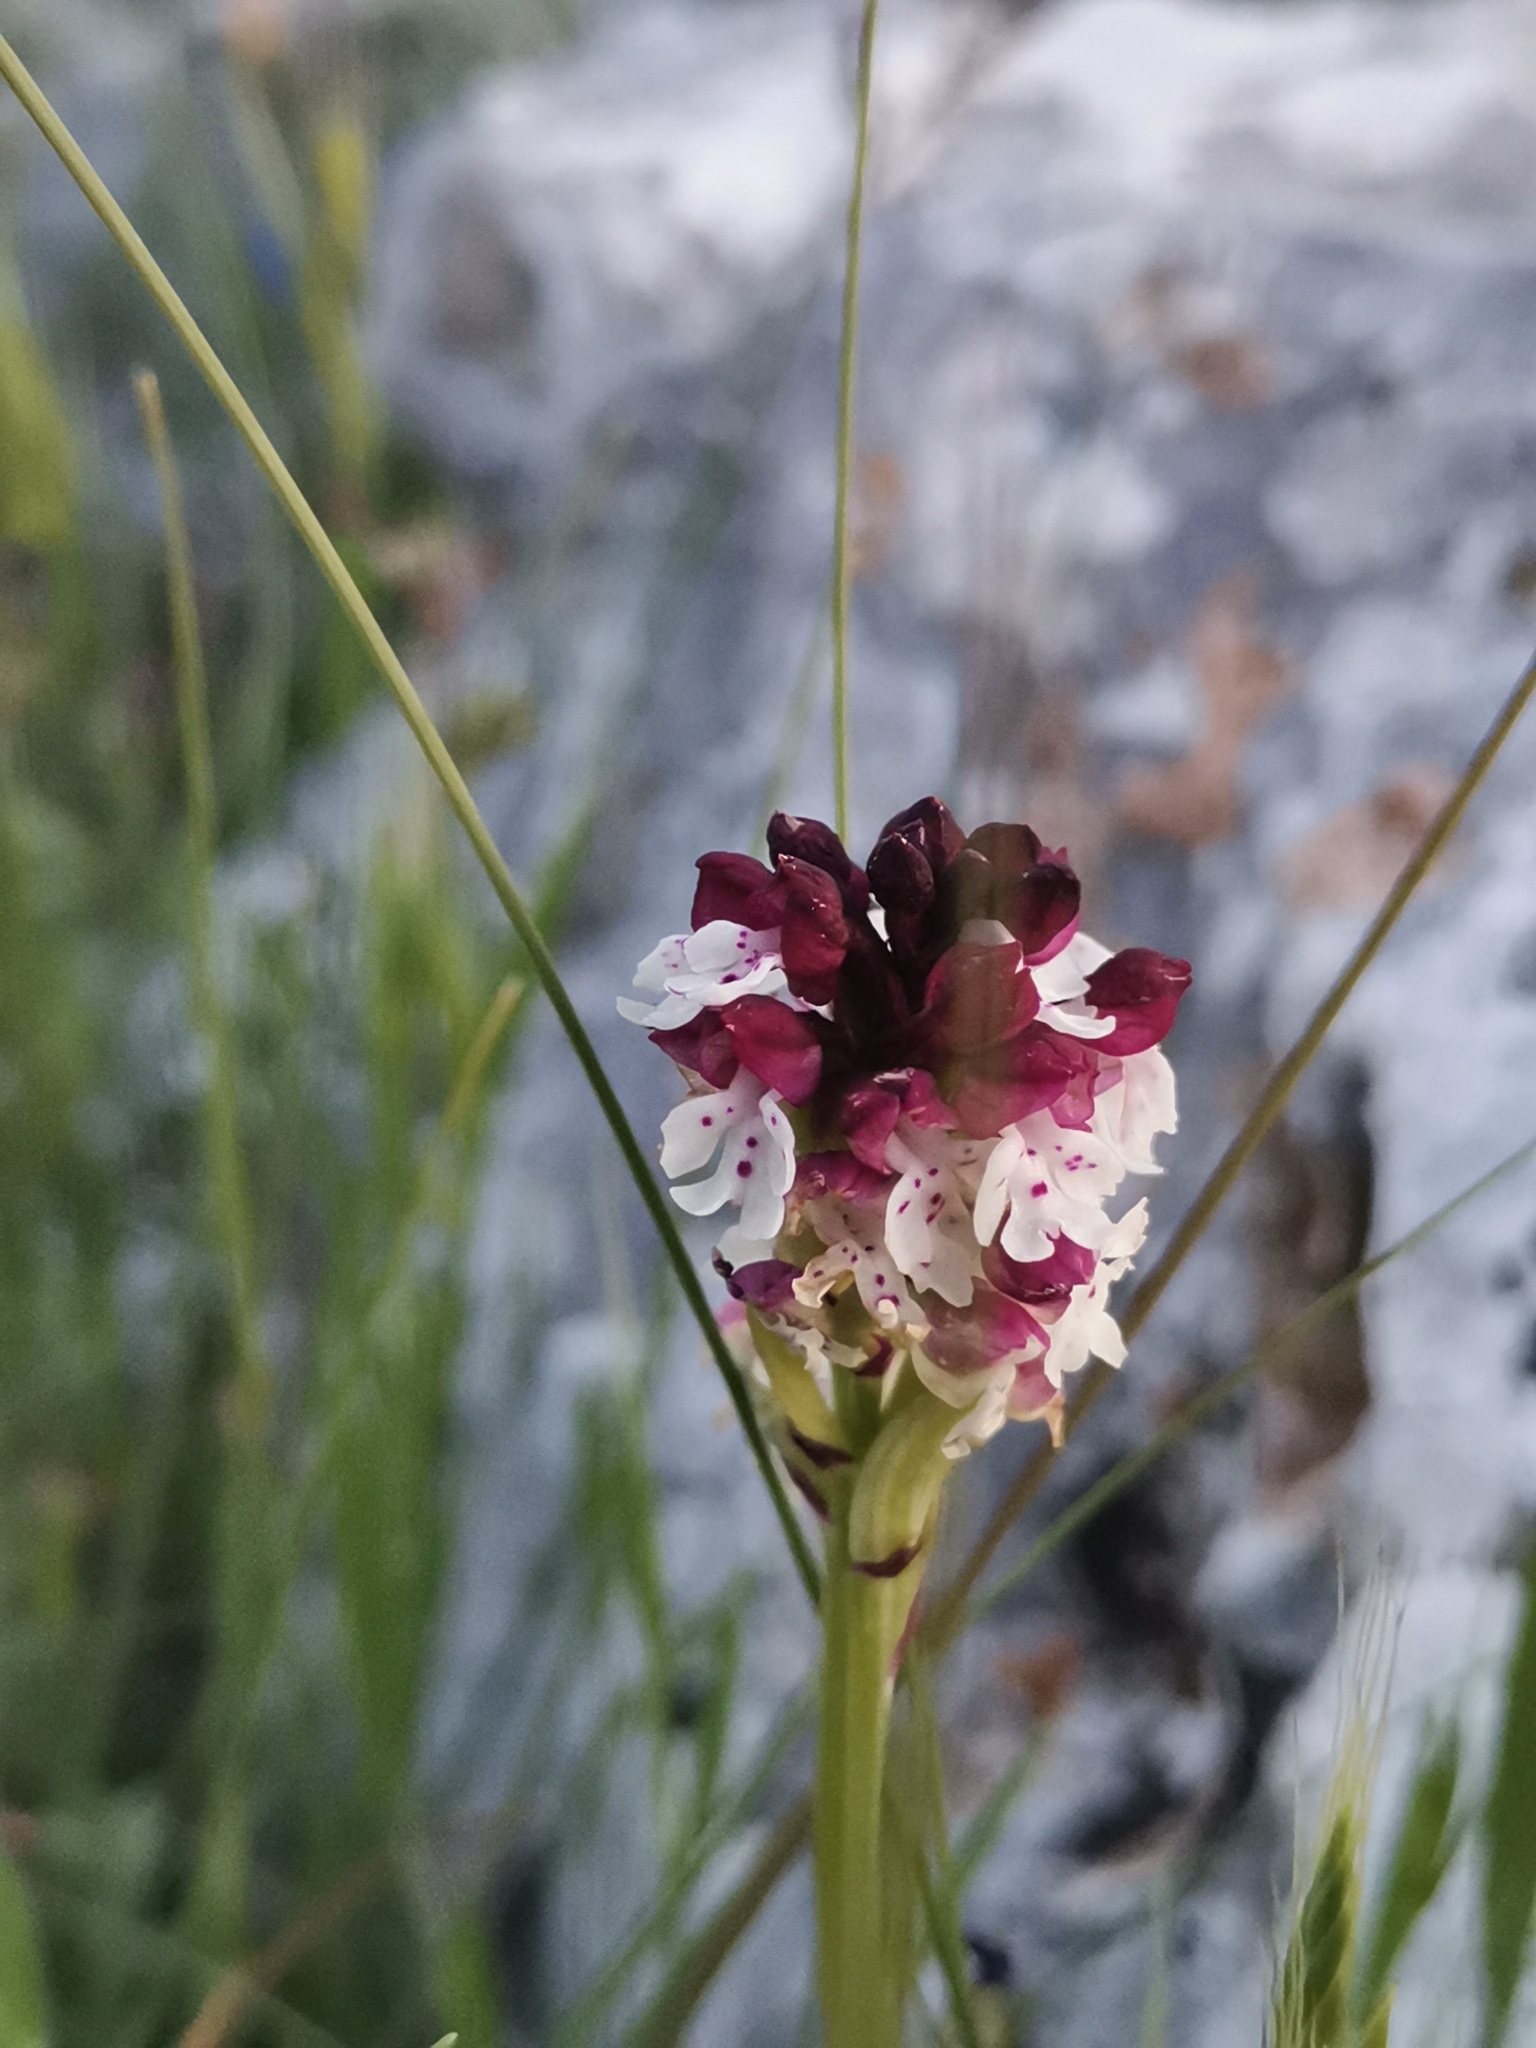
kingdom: Plantae
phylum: Tracheophyta
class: Liliopsida
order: Asparagales
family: Orchidaceae
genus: Neotinea
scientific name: Neotinea ustulata
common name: Burnt orchid
